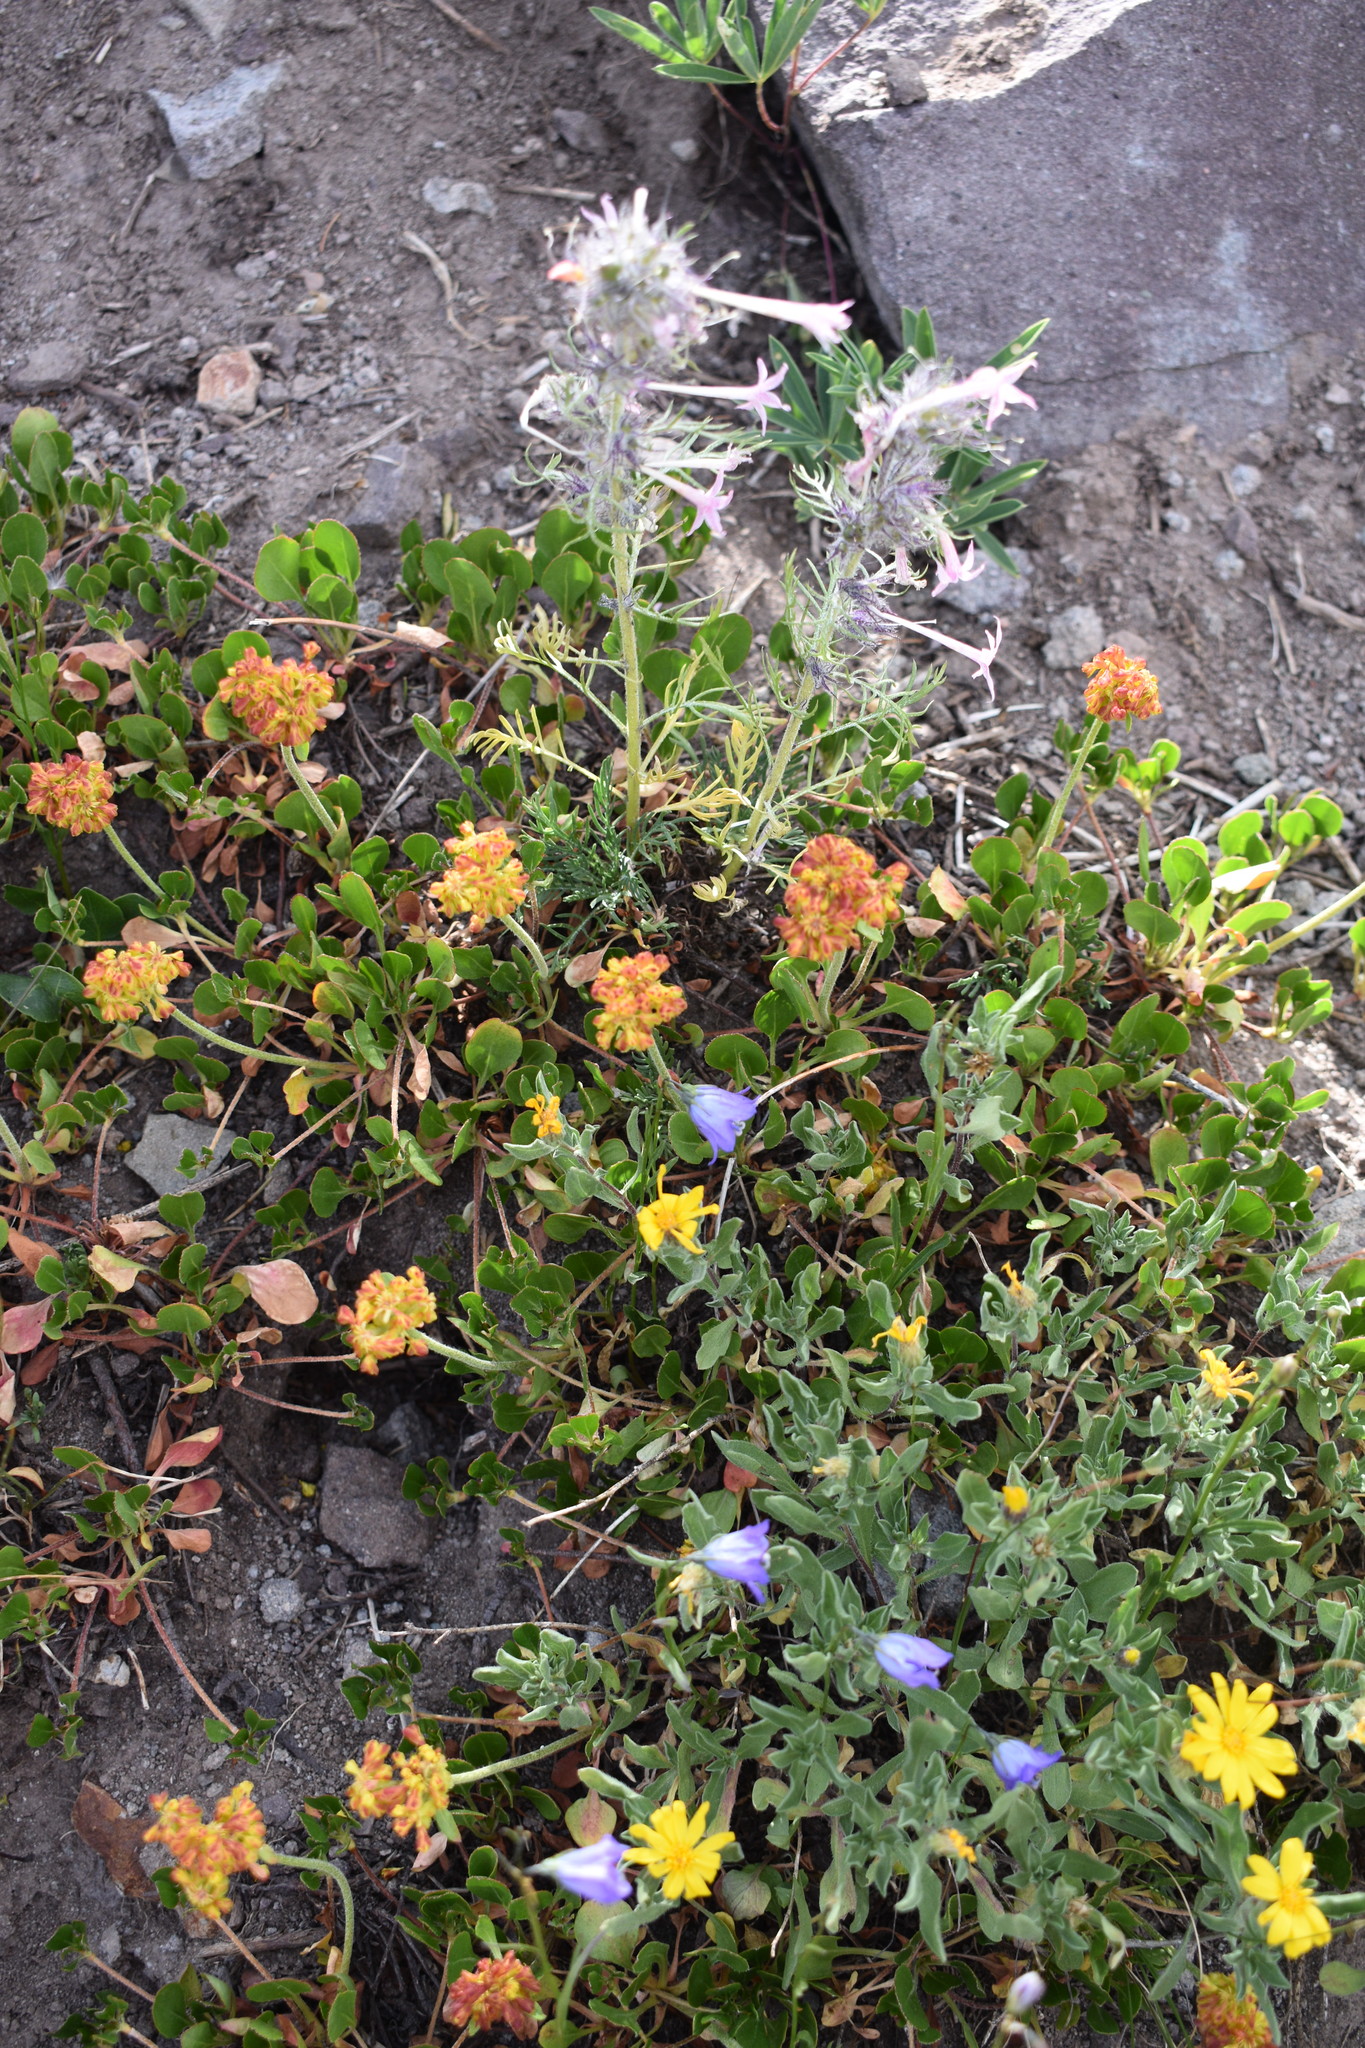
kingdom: Plantae
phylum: Tracheophyta
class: Magnoliopsida
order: Caryophyllales
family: Polygonaceae
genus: Eriogonum
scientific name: Eriogonum umbellatum
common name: Sulfur-buckwheat
